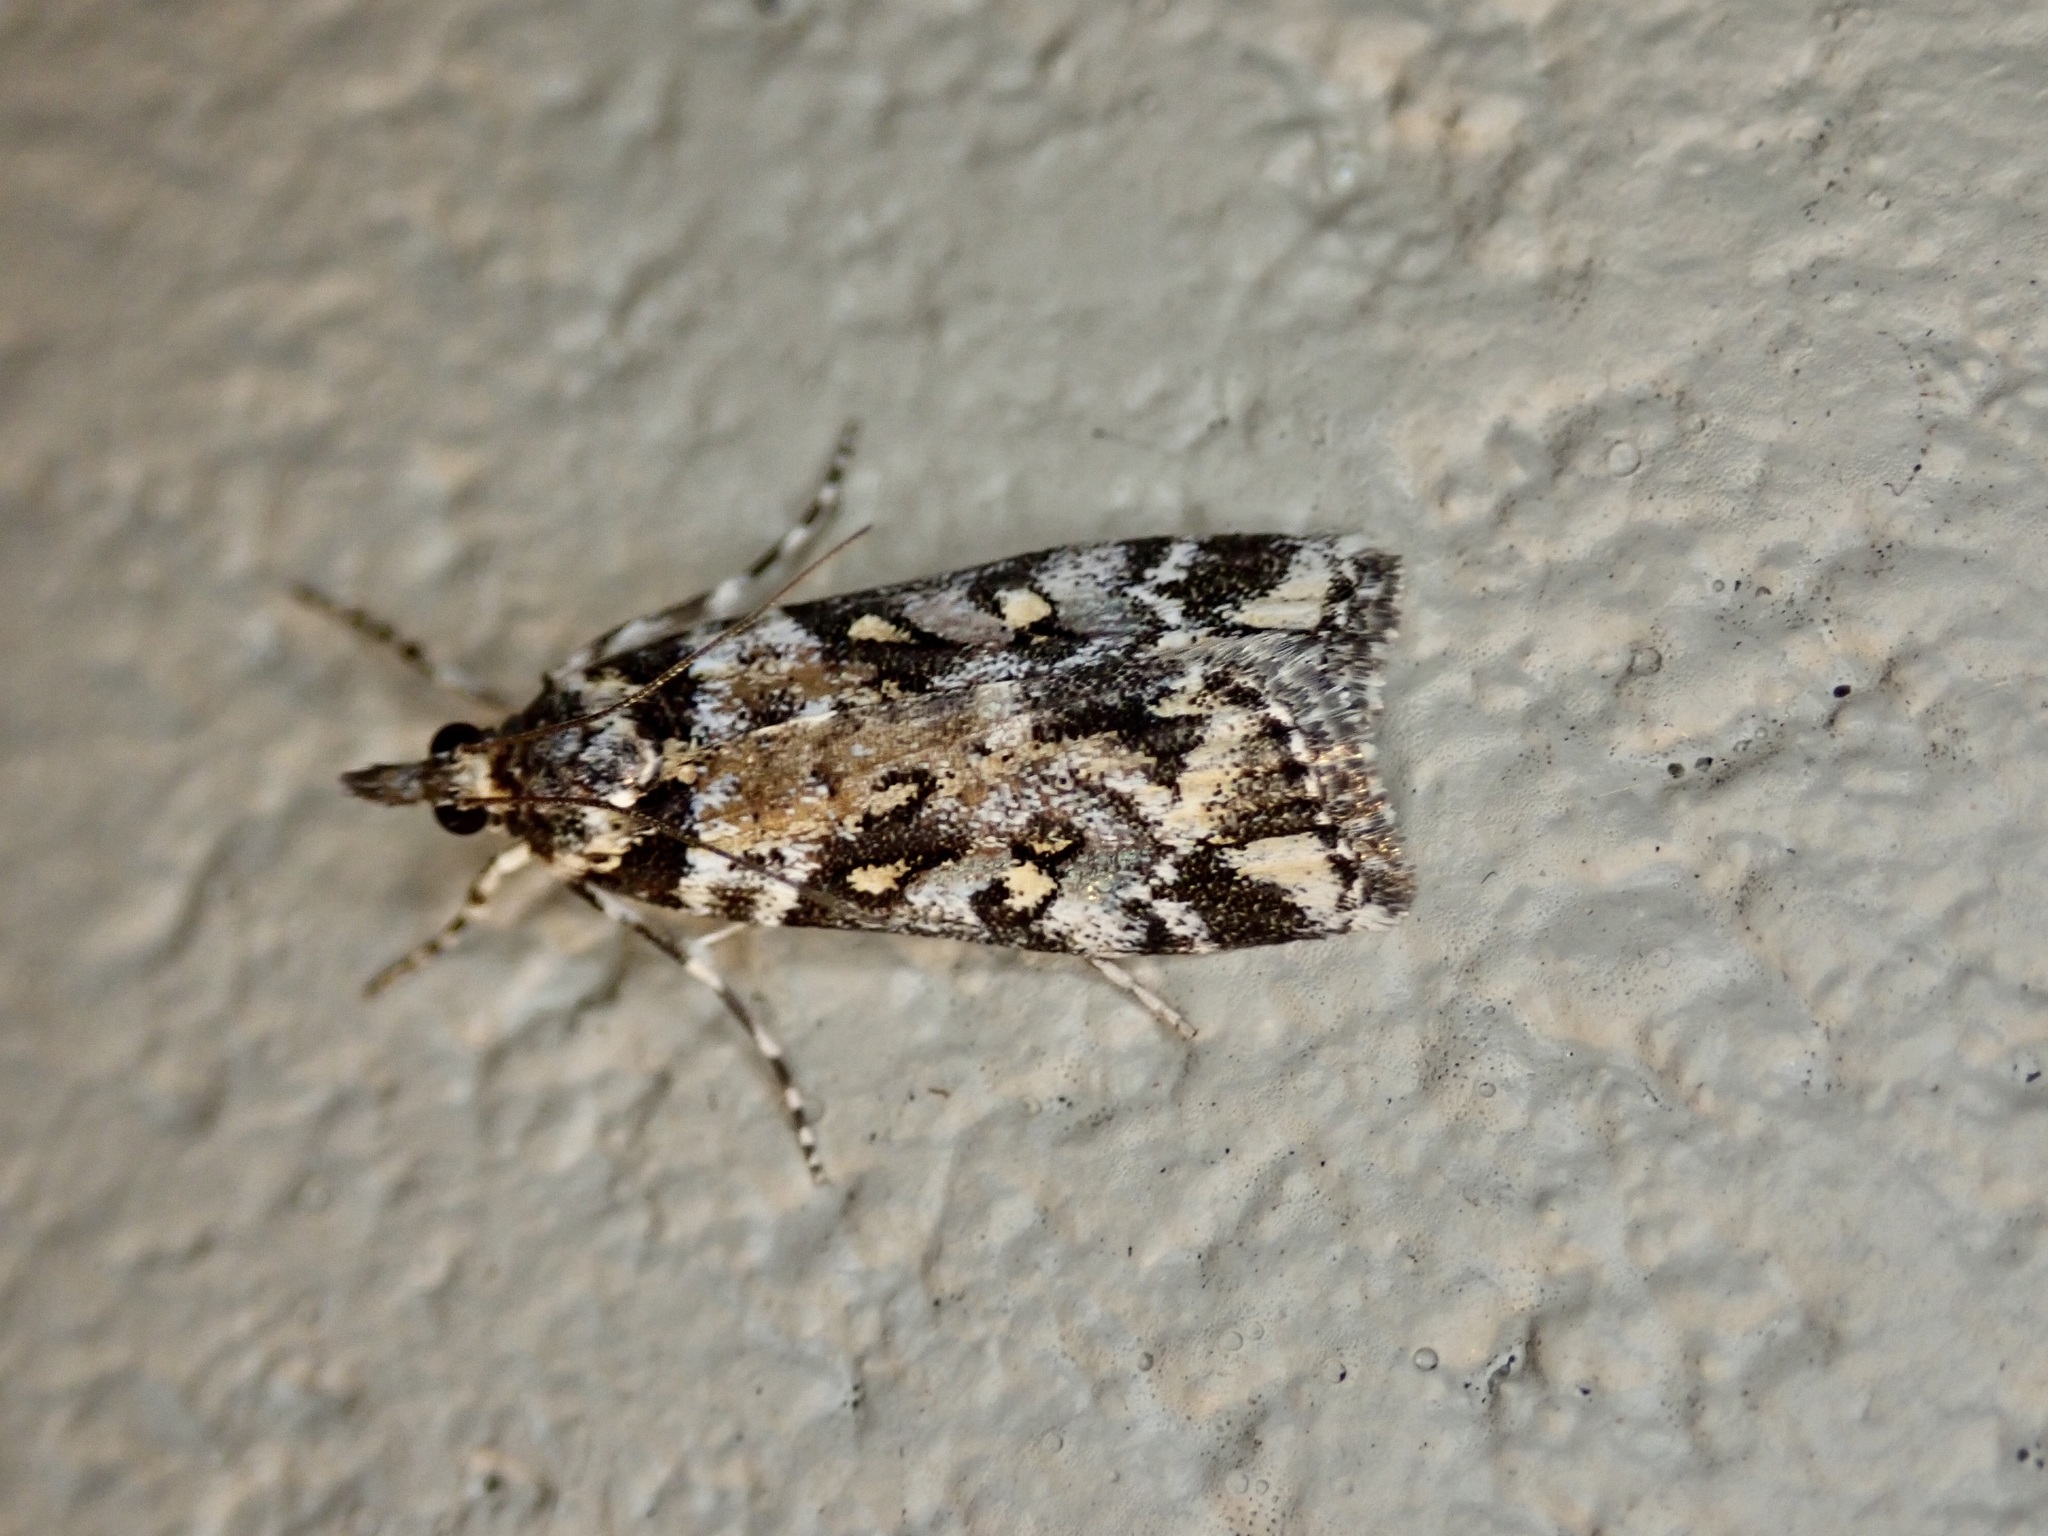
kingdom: Animalia
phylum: Arthropoda
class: Insecta
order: Lepidoptera
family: Crambidae
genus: Eudonia
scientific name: Eudonia diphtheralis
